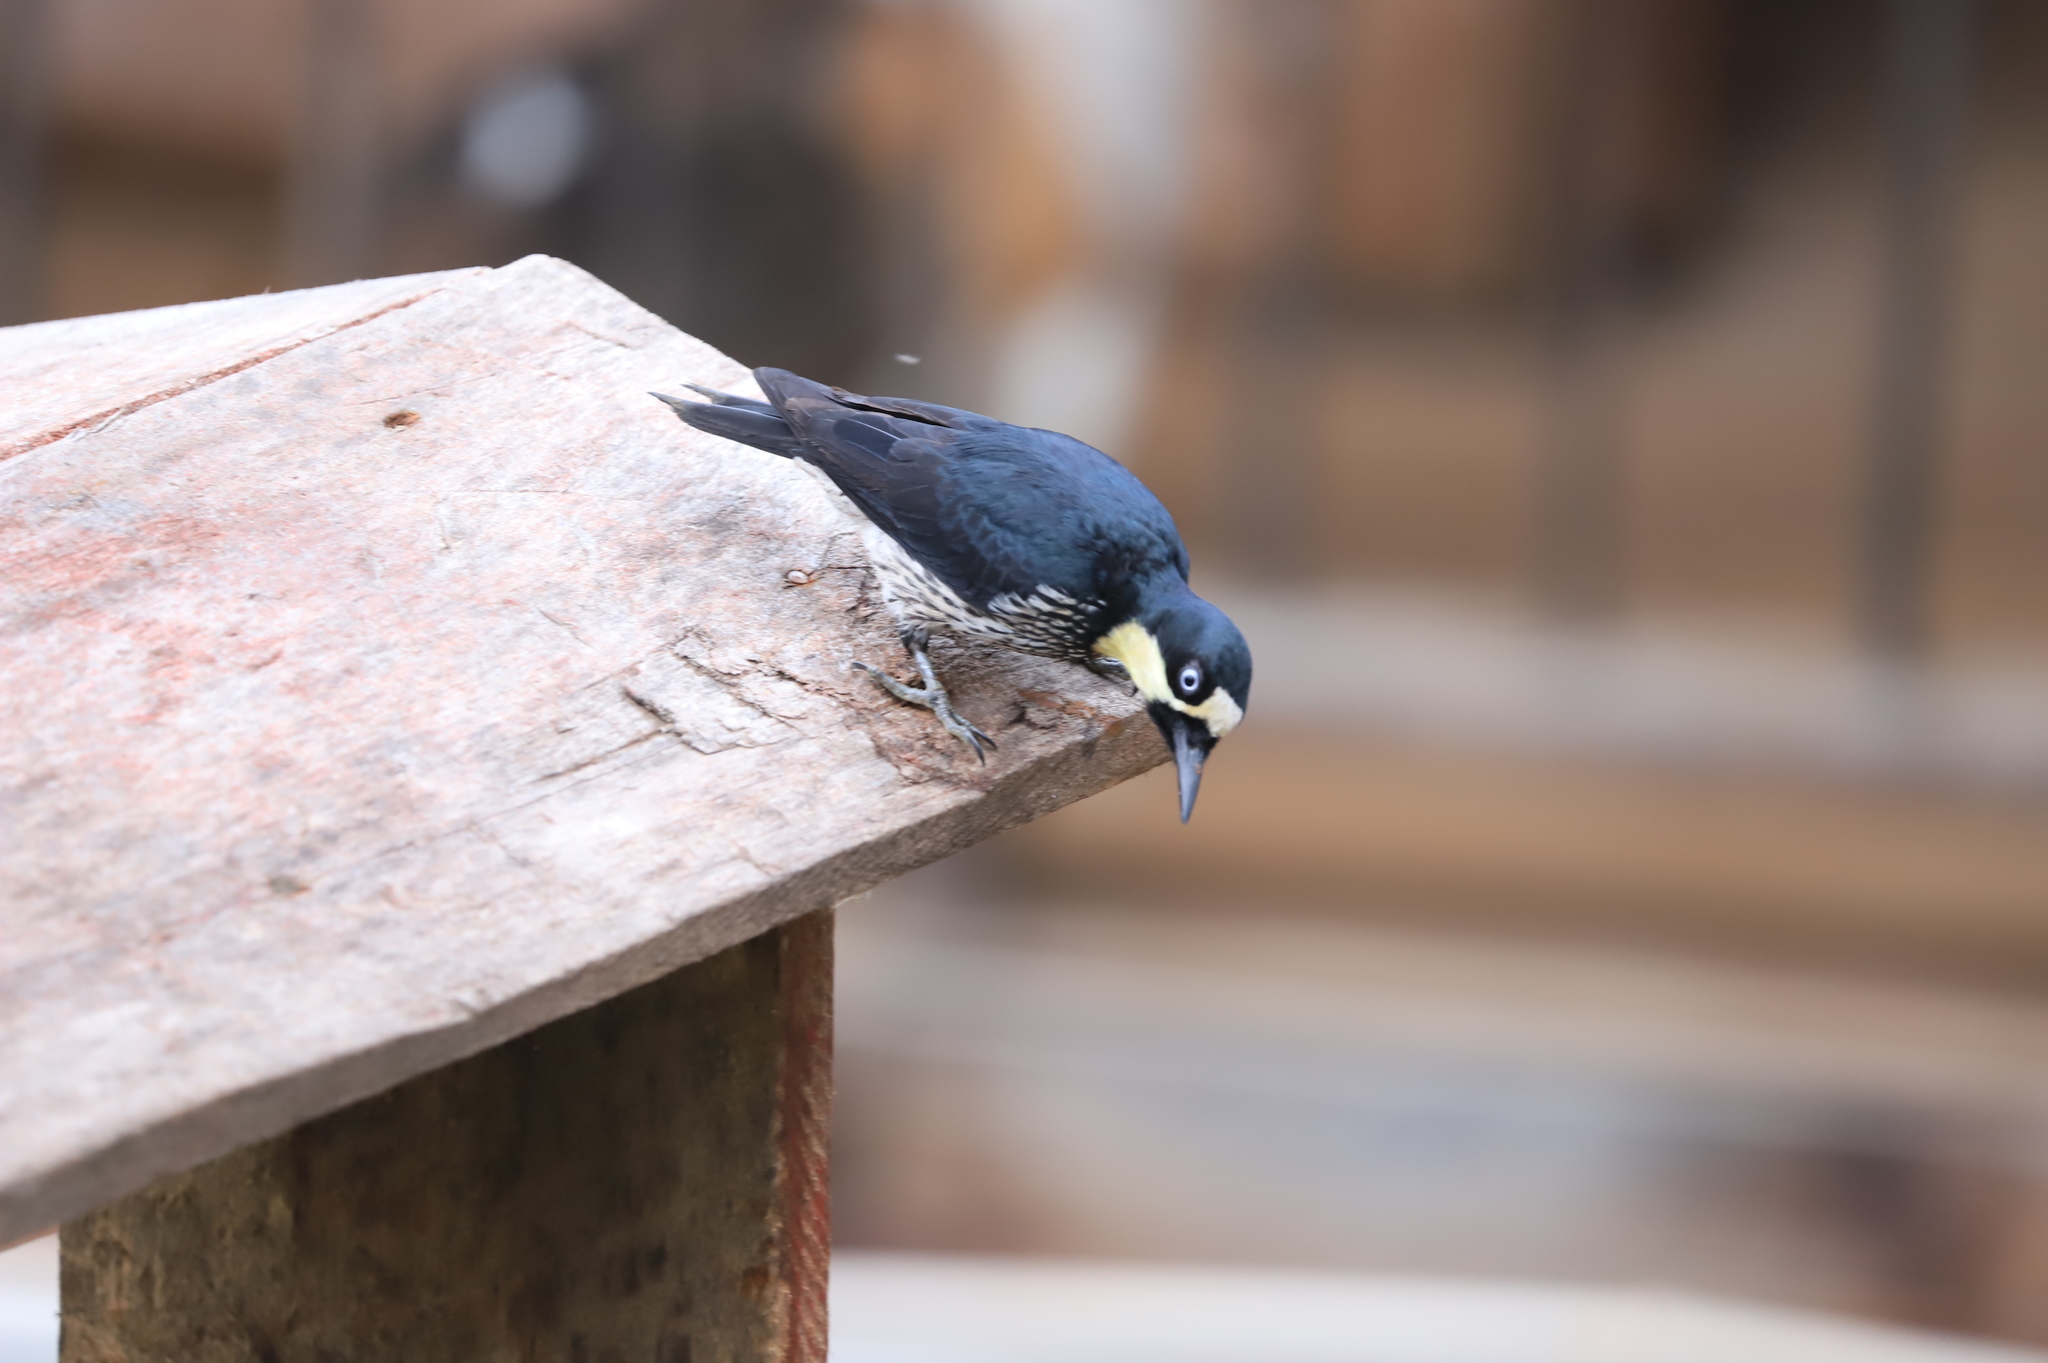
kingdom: Animalia
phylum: Chordata
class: Aves
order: Piciformes
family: Picidae
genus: Melanerpes
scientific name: Melanerpes formicivorus
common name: Acorn woodpecker
